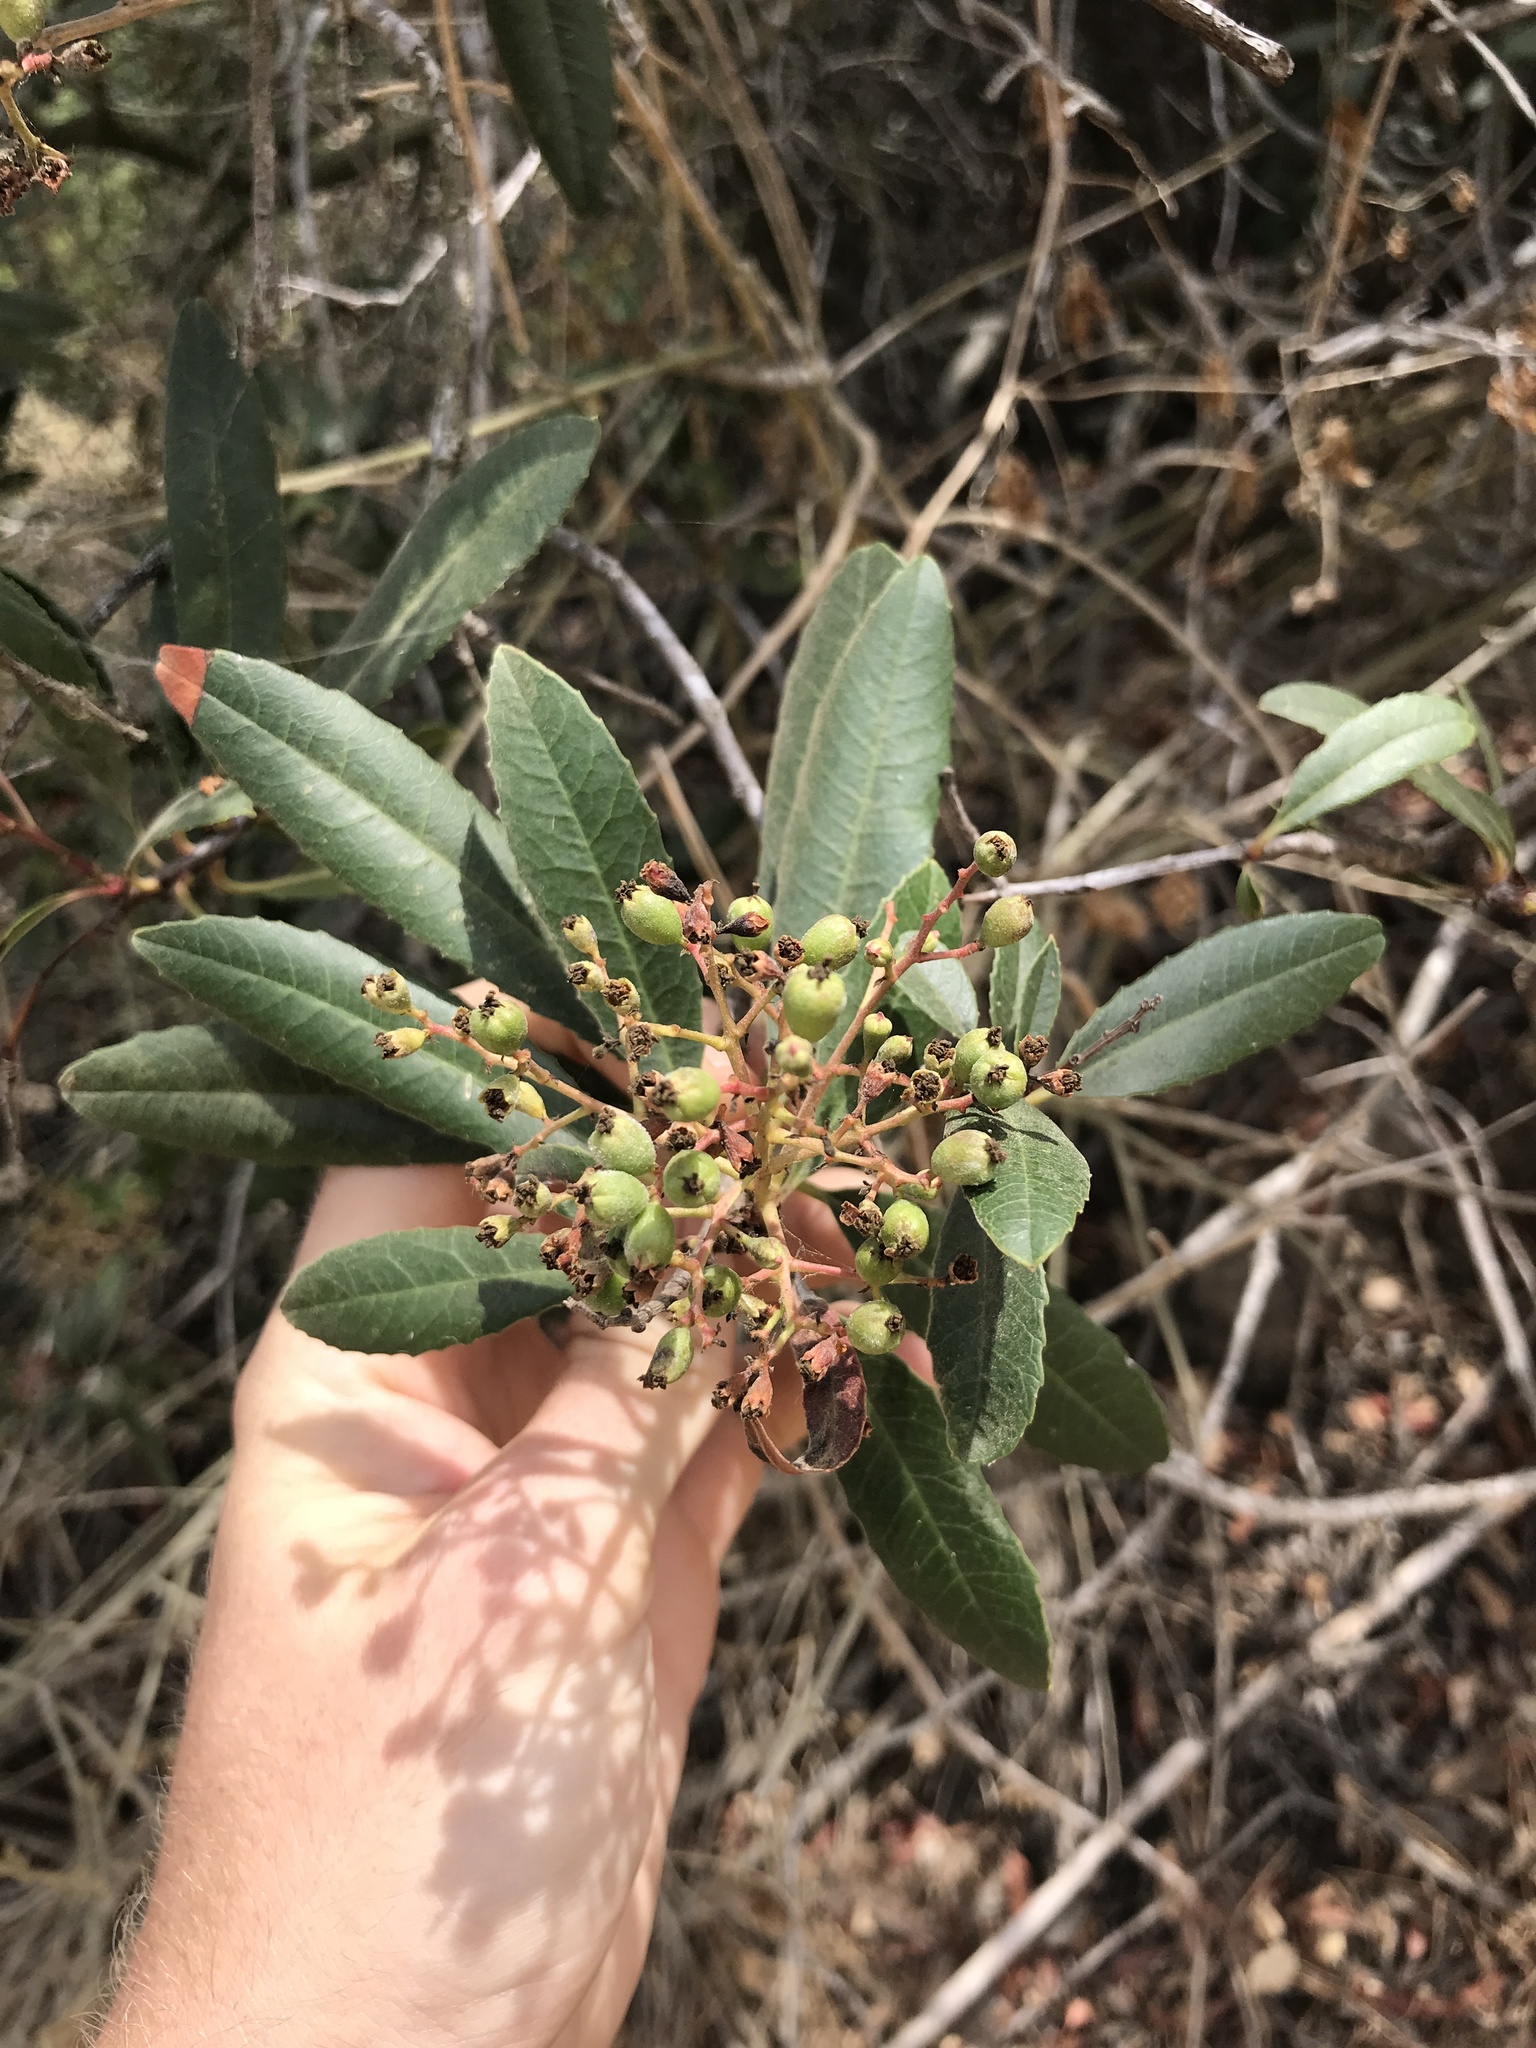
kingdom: Plantae
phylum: Tracheophyta
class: Magnoliopsida
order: Rosales
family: Rosaceae
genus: Heteromeles
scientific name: Heteromeles arbutifolia
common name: California-holly
